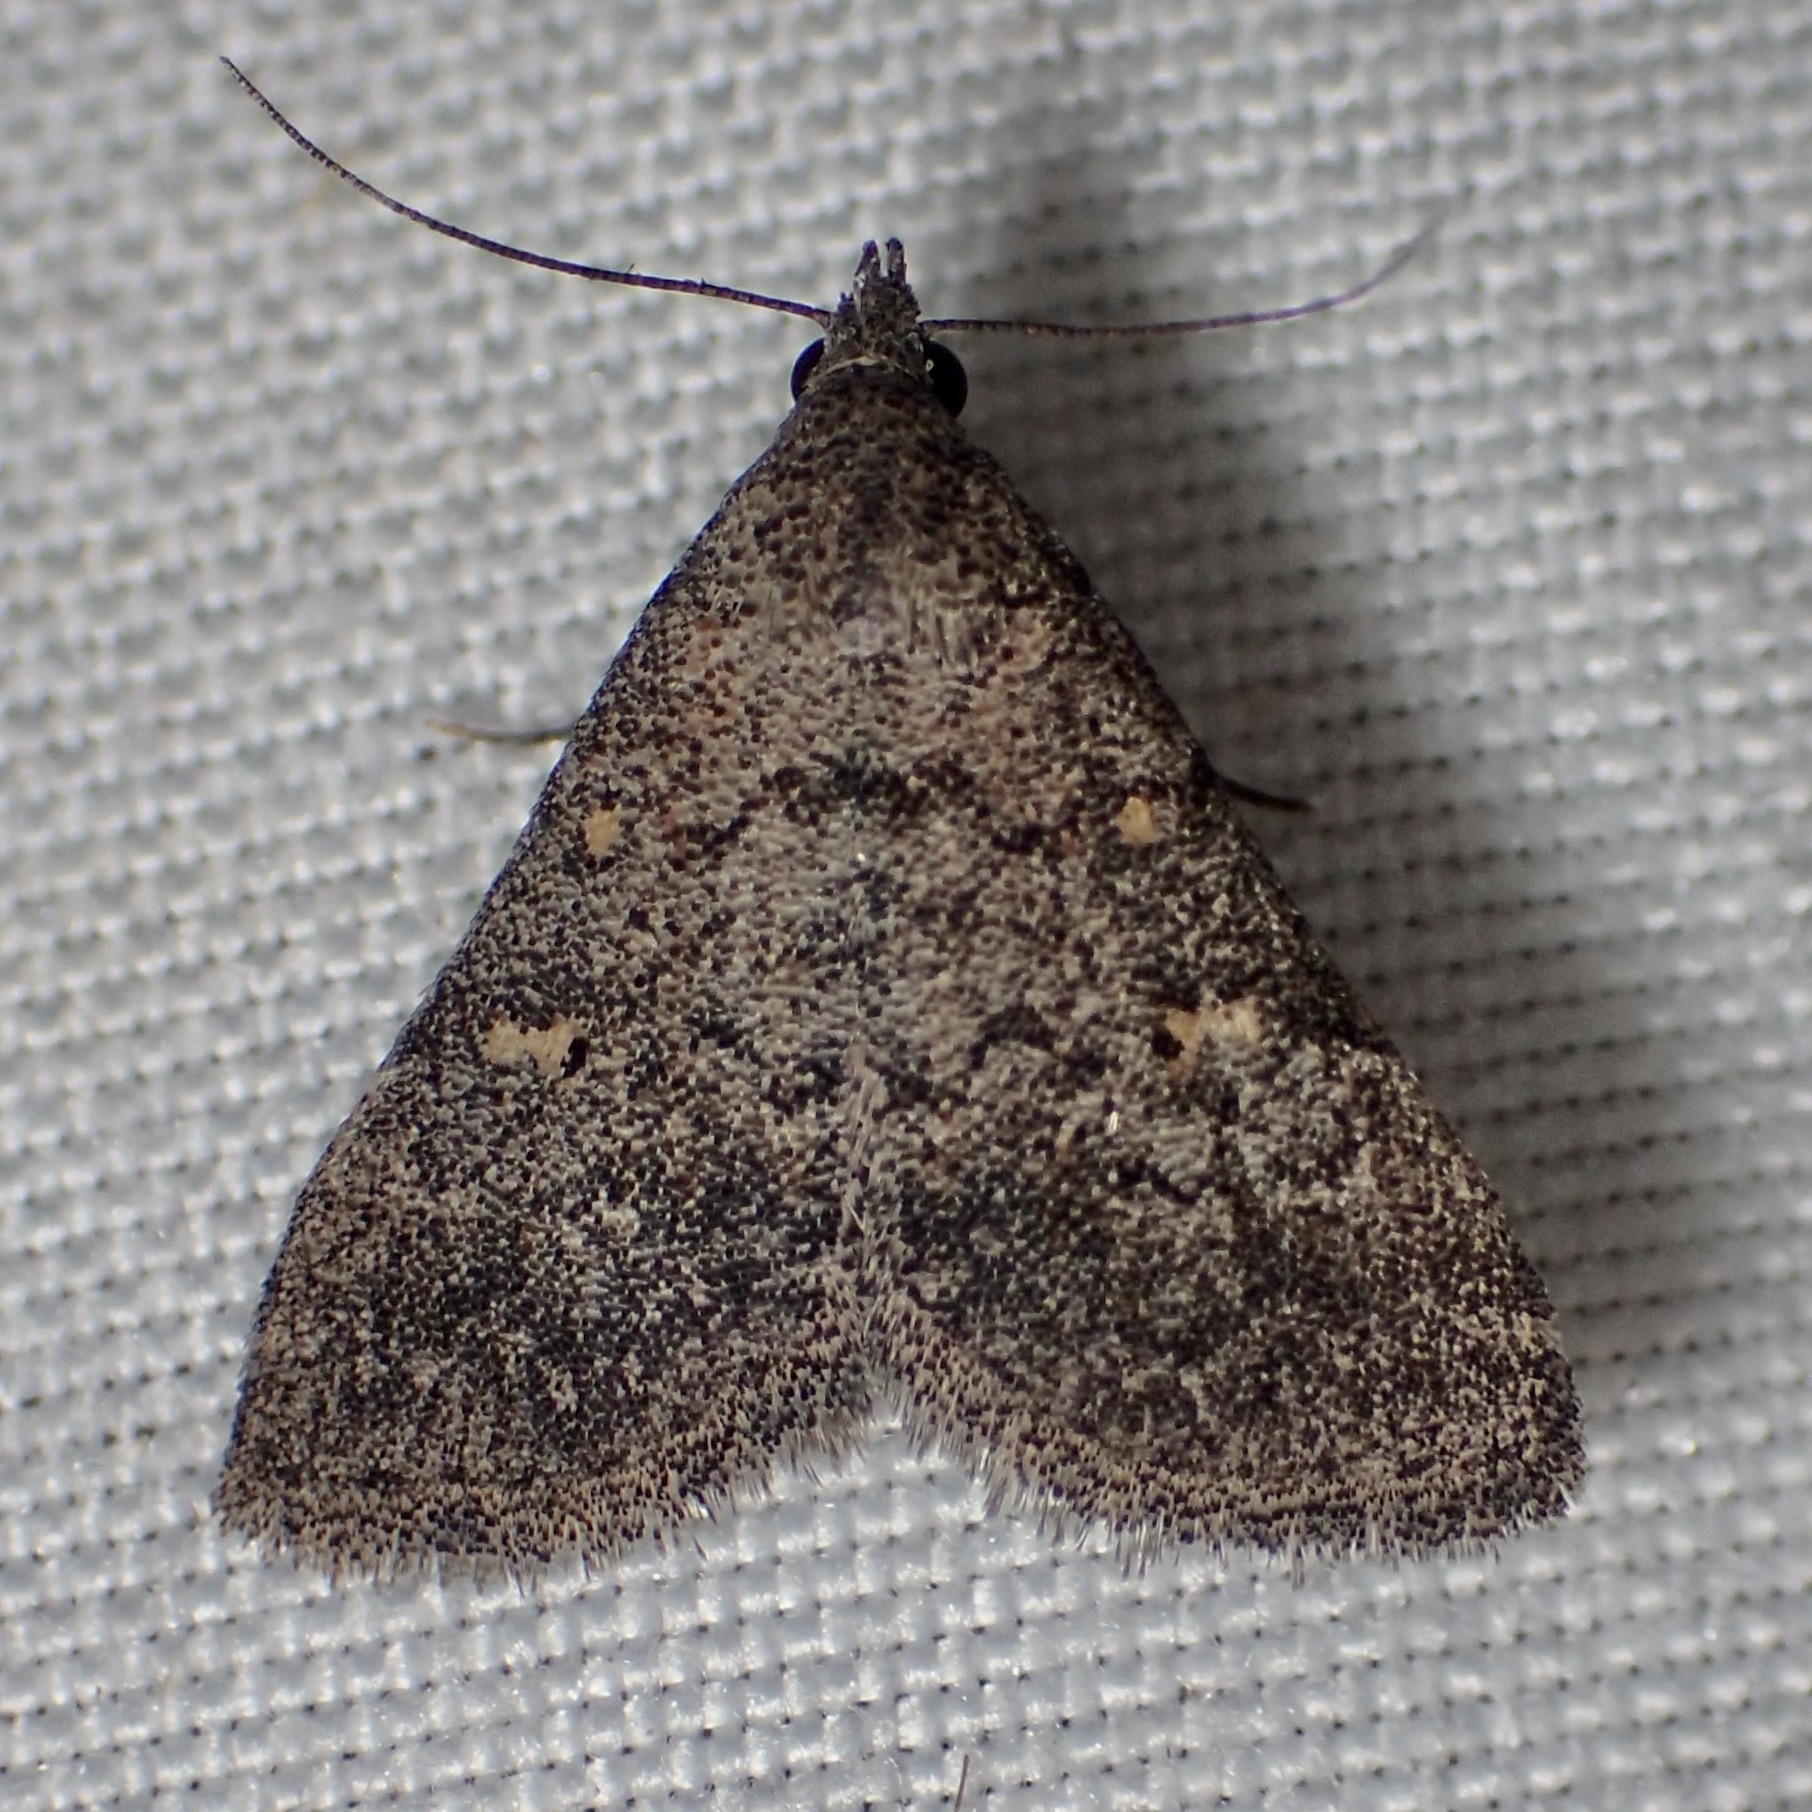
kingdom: Animalia
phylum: Arthropoda
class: Insecta
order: Lepidoptera
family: Erebidae
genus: Bleptina
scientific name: Bleptina minimalis
